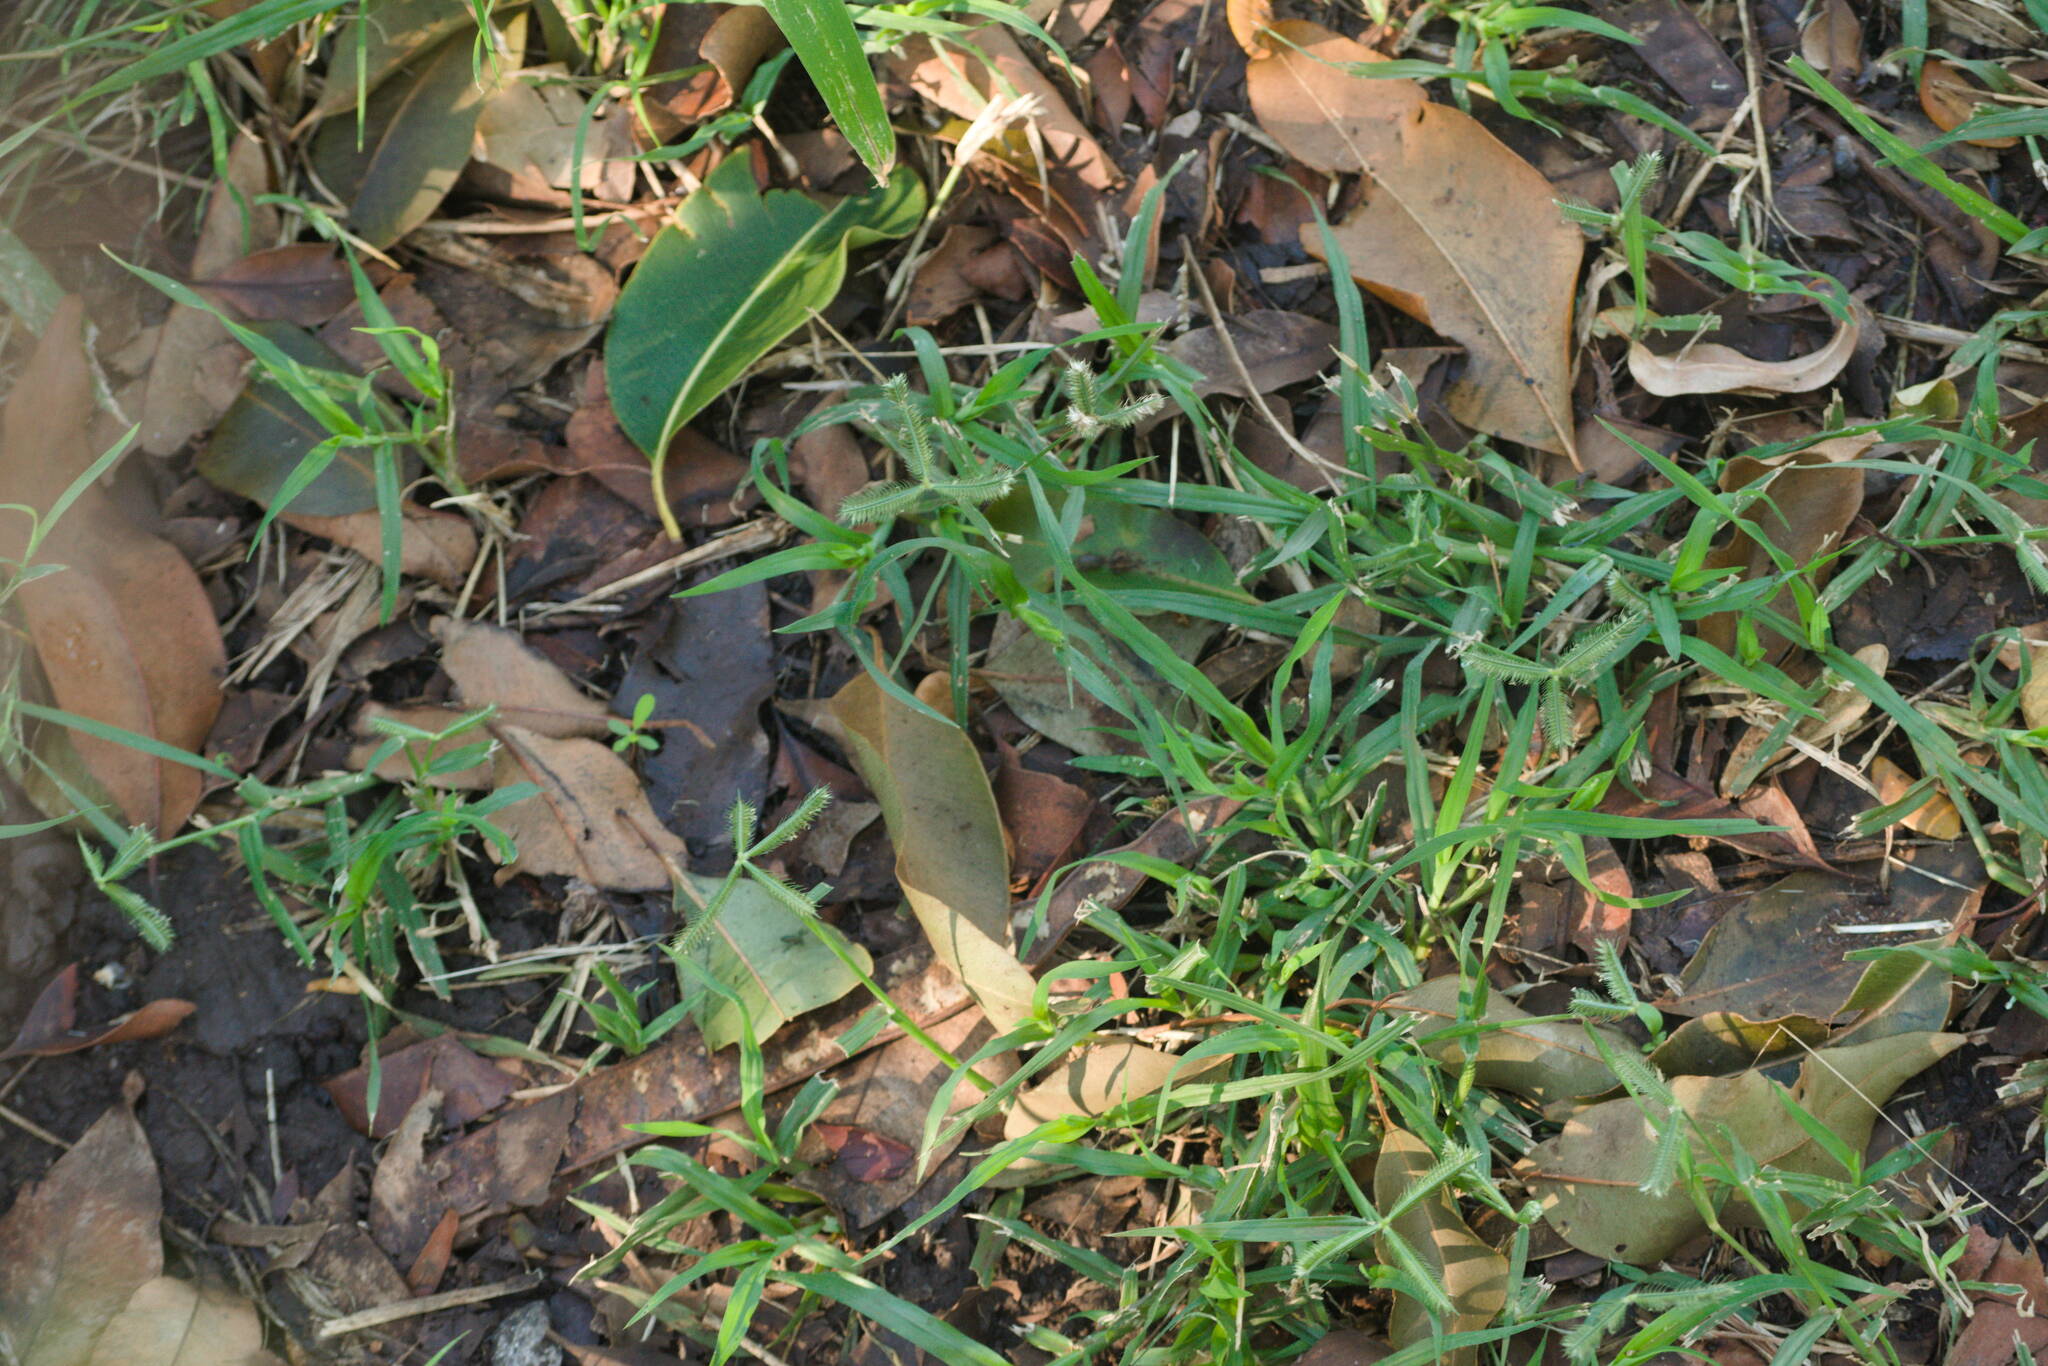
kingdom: Plantae
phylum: Tracheophyta
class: Liliopsida
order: Poales
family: Poaceae
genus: Dactyloctenium
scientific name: Dactyloctenium aegyptium
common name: Egyptian grass
